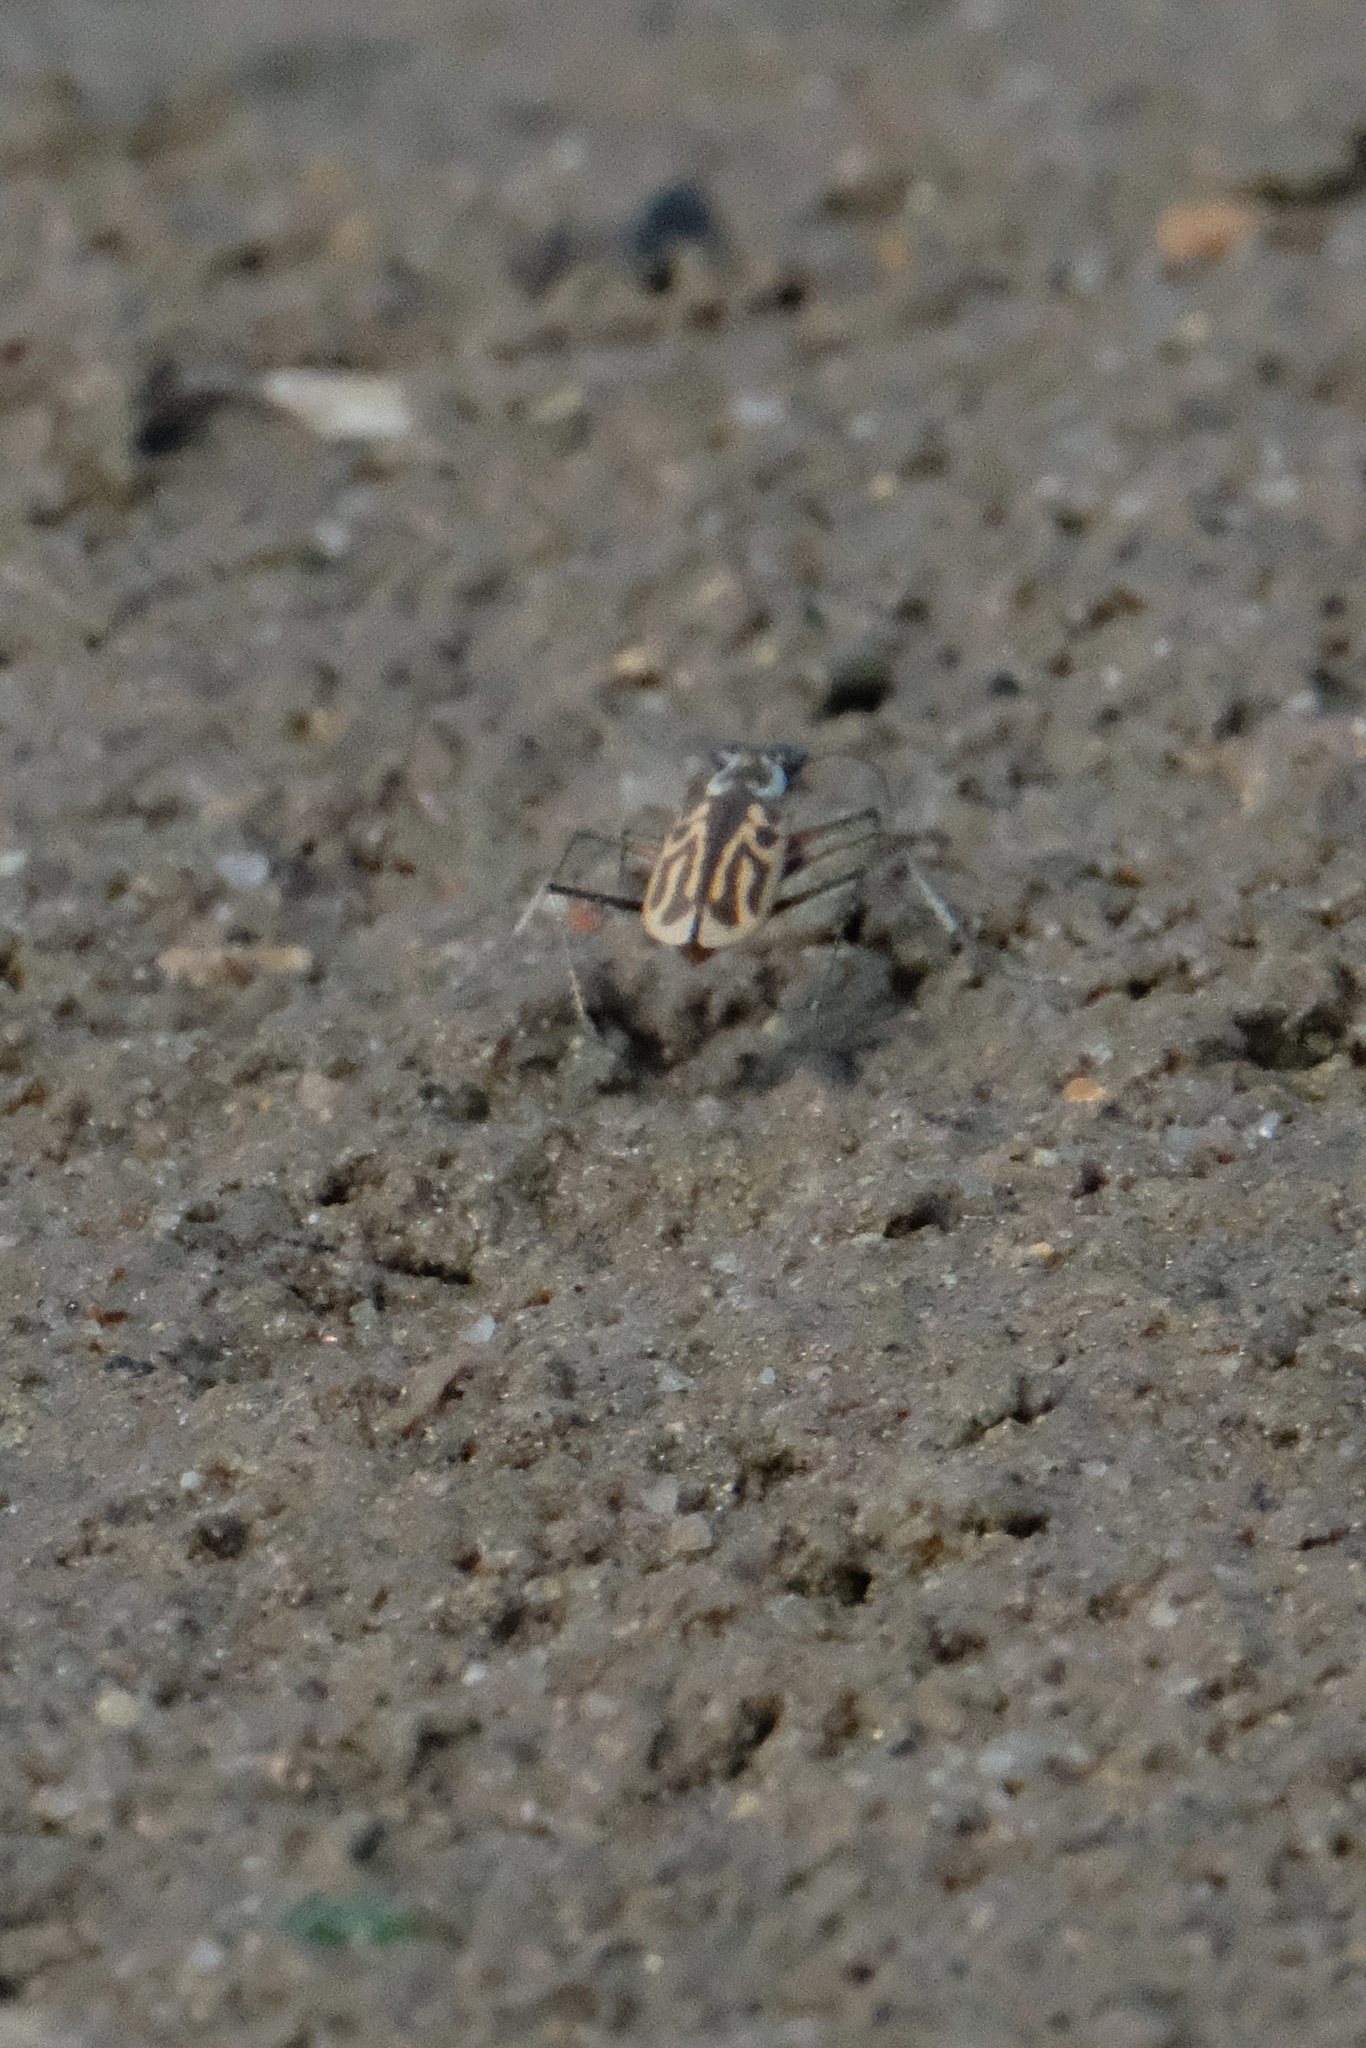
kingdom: Animalia
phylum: Arthropoda
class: Insecta
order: Coleoptera
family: Carabidae
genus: Eunota
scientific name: Eunota gabbii
